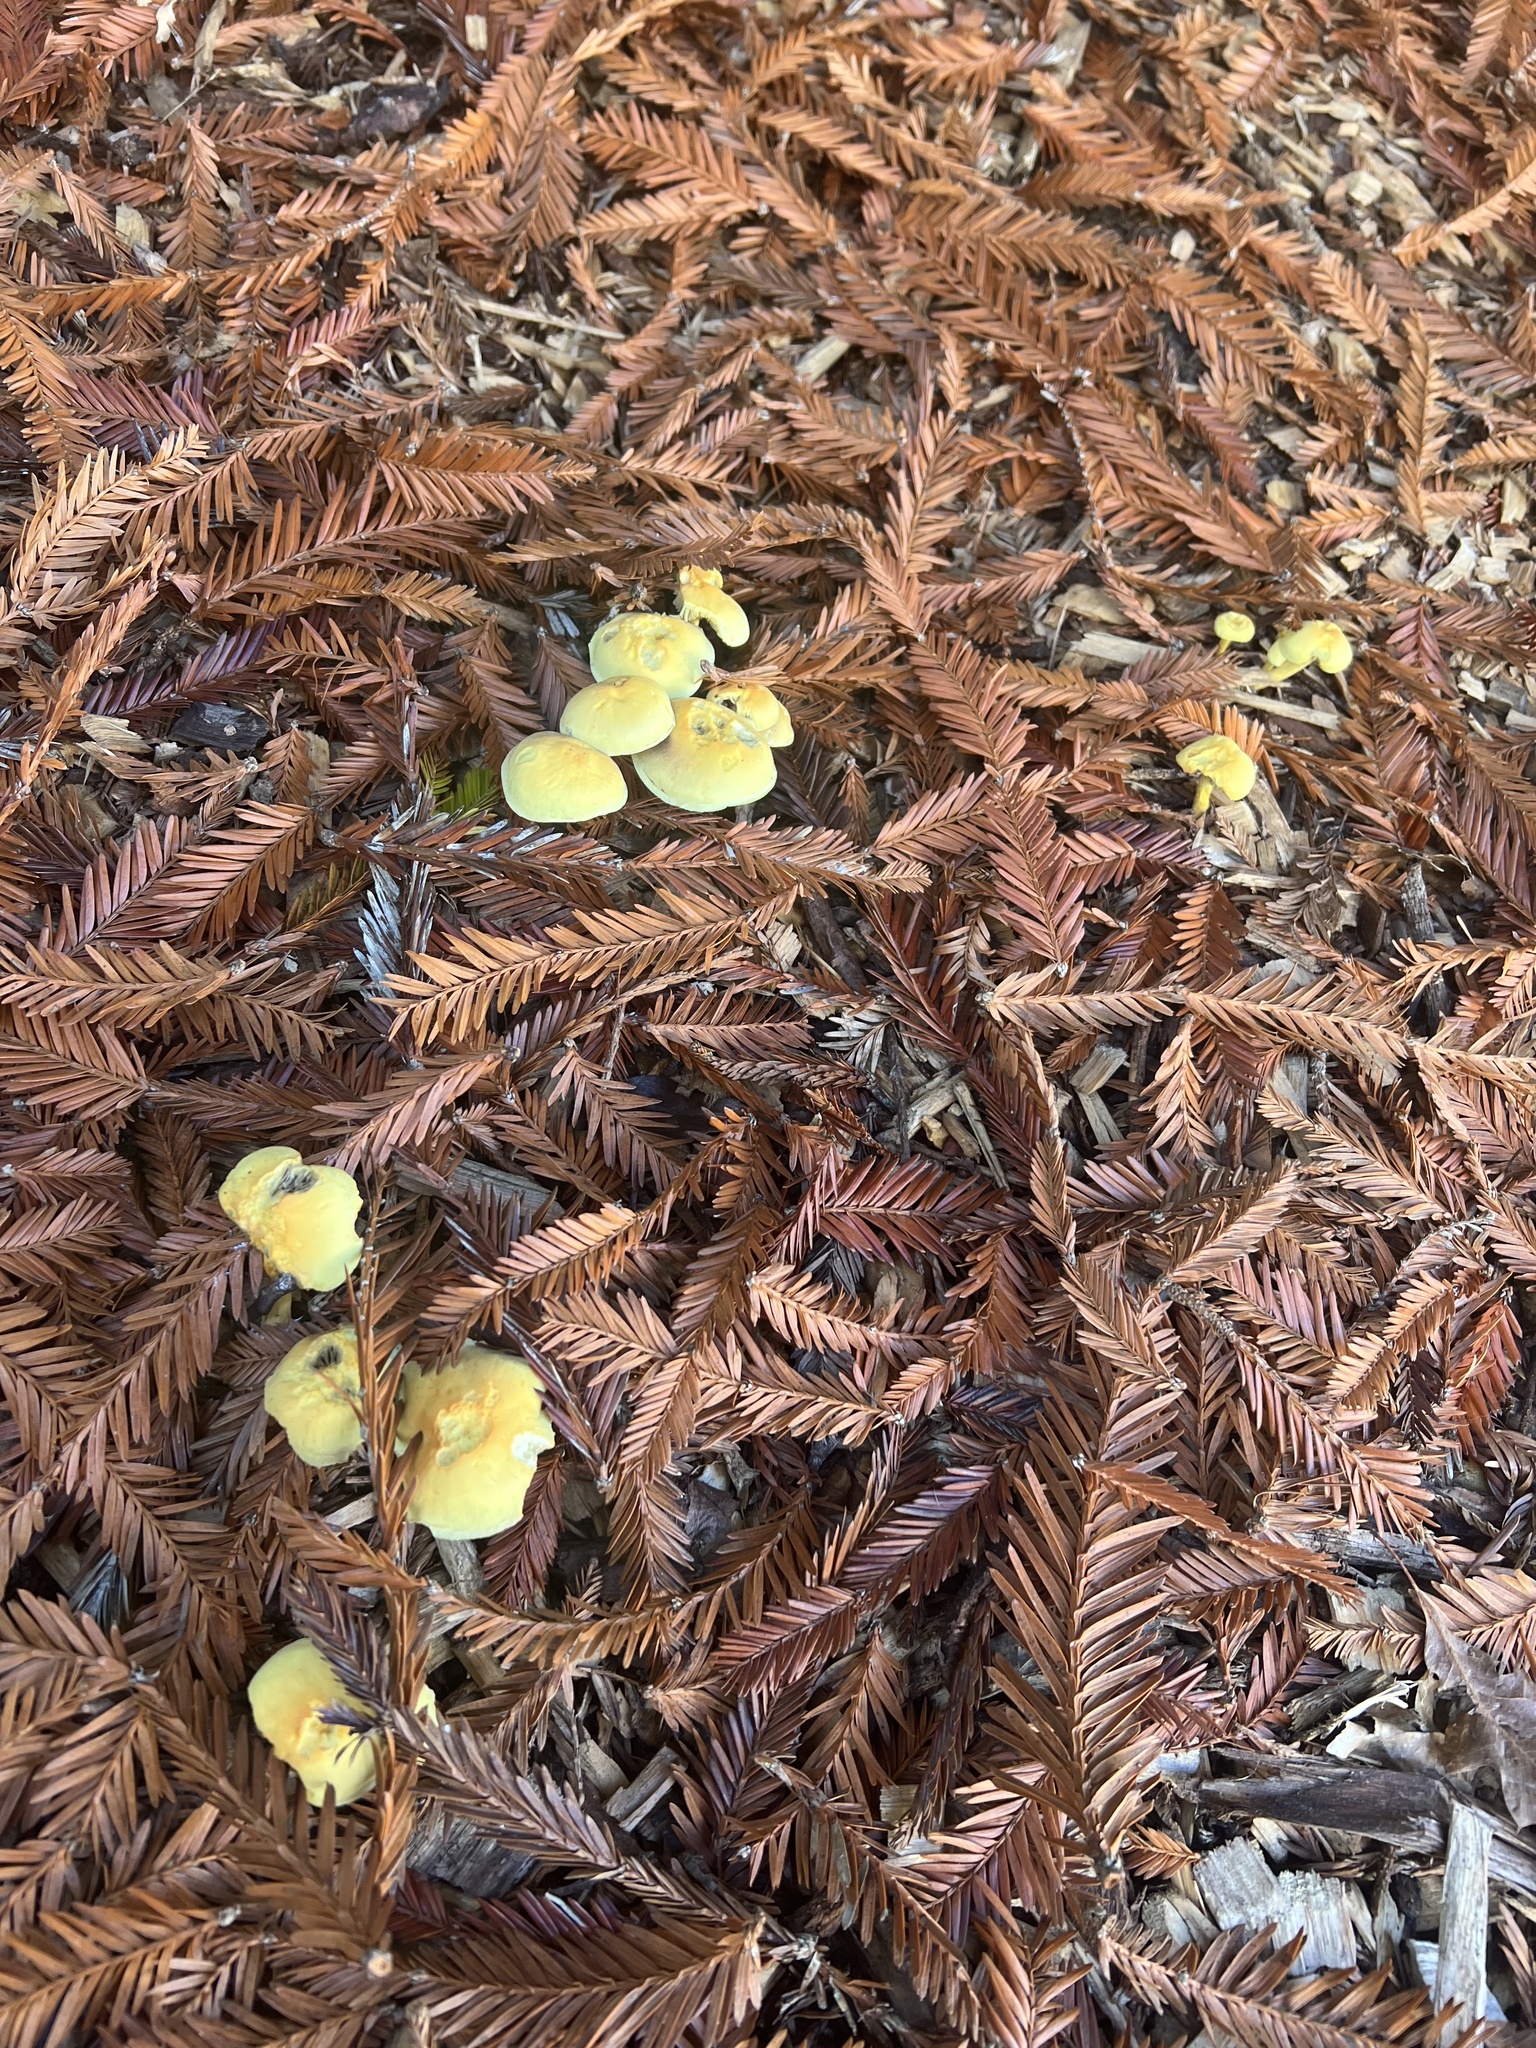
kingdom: Fungi
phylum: Basidiomycota
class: Agaricomycetes
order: Agaricales
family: Strophariaceae
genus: Hypholoma
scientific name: Hypholoma fasciculare
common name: Sulphur tuft
